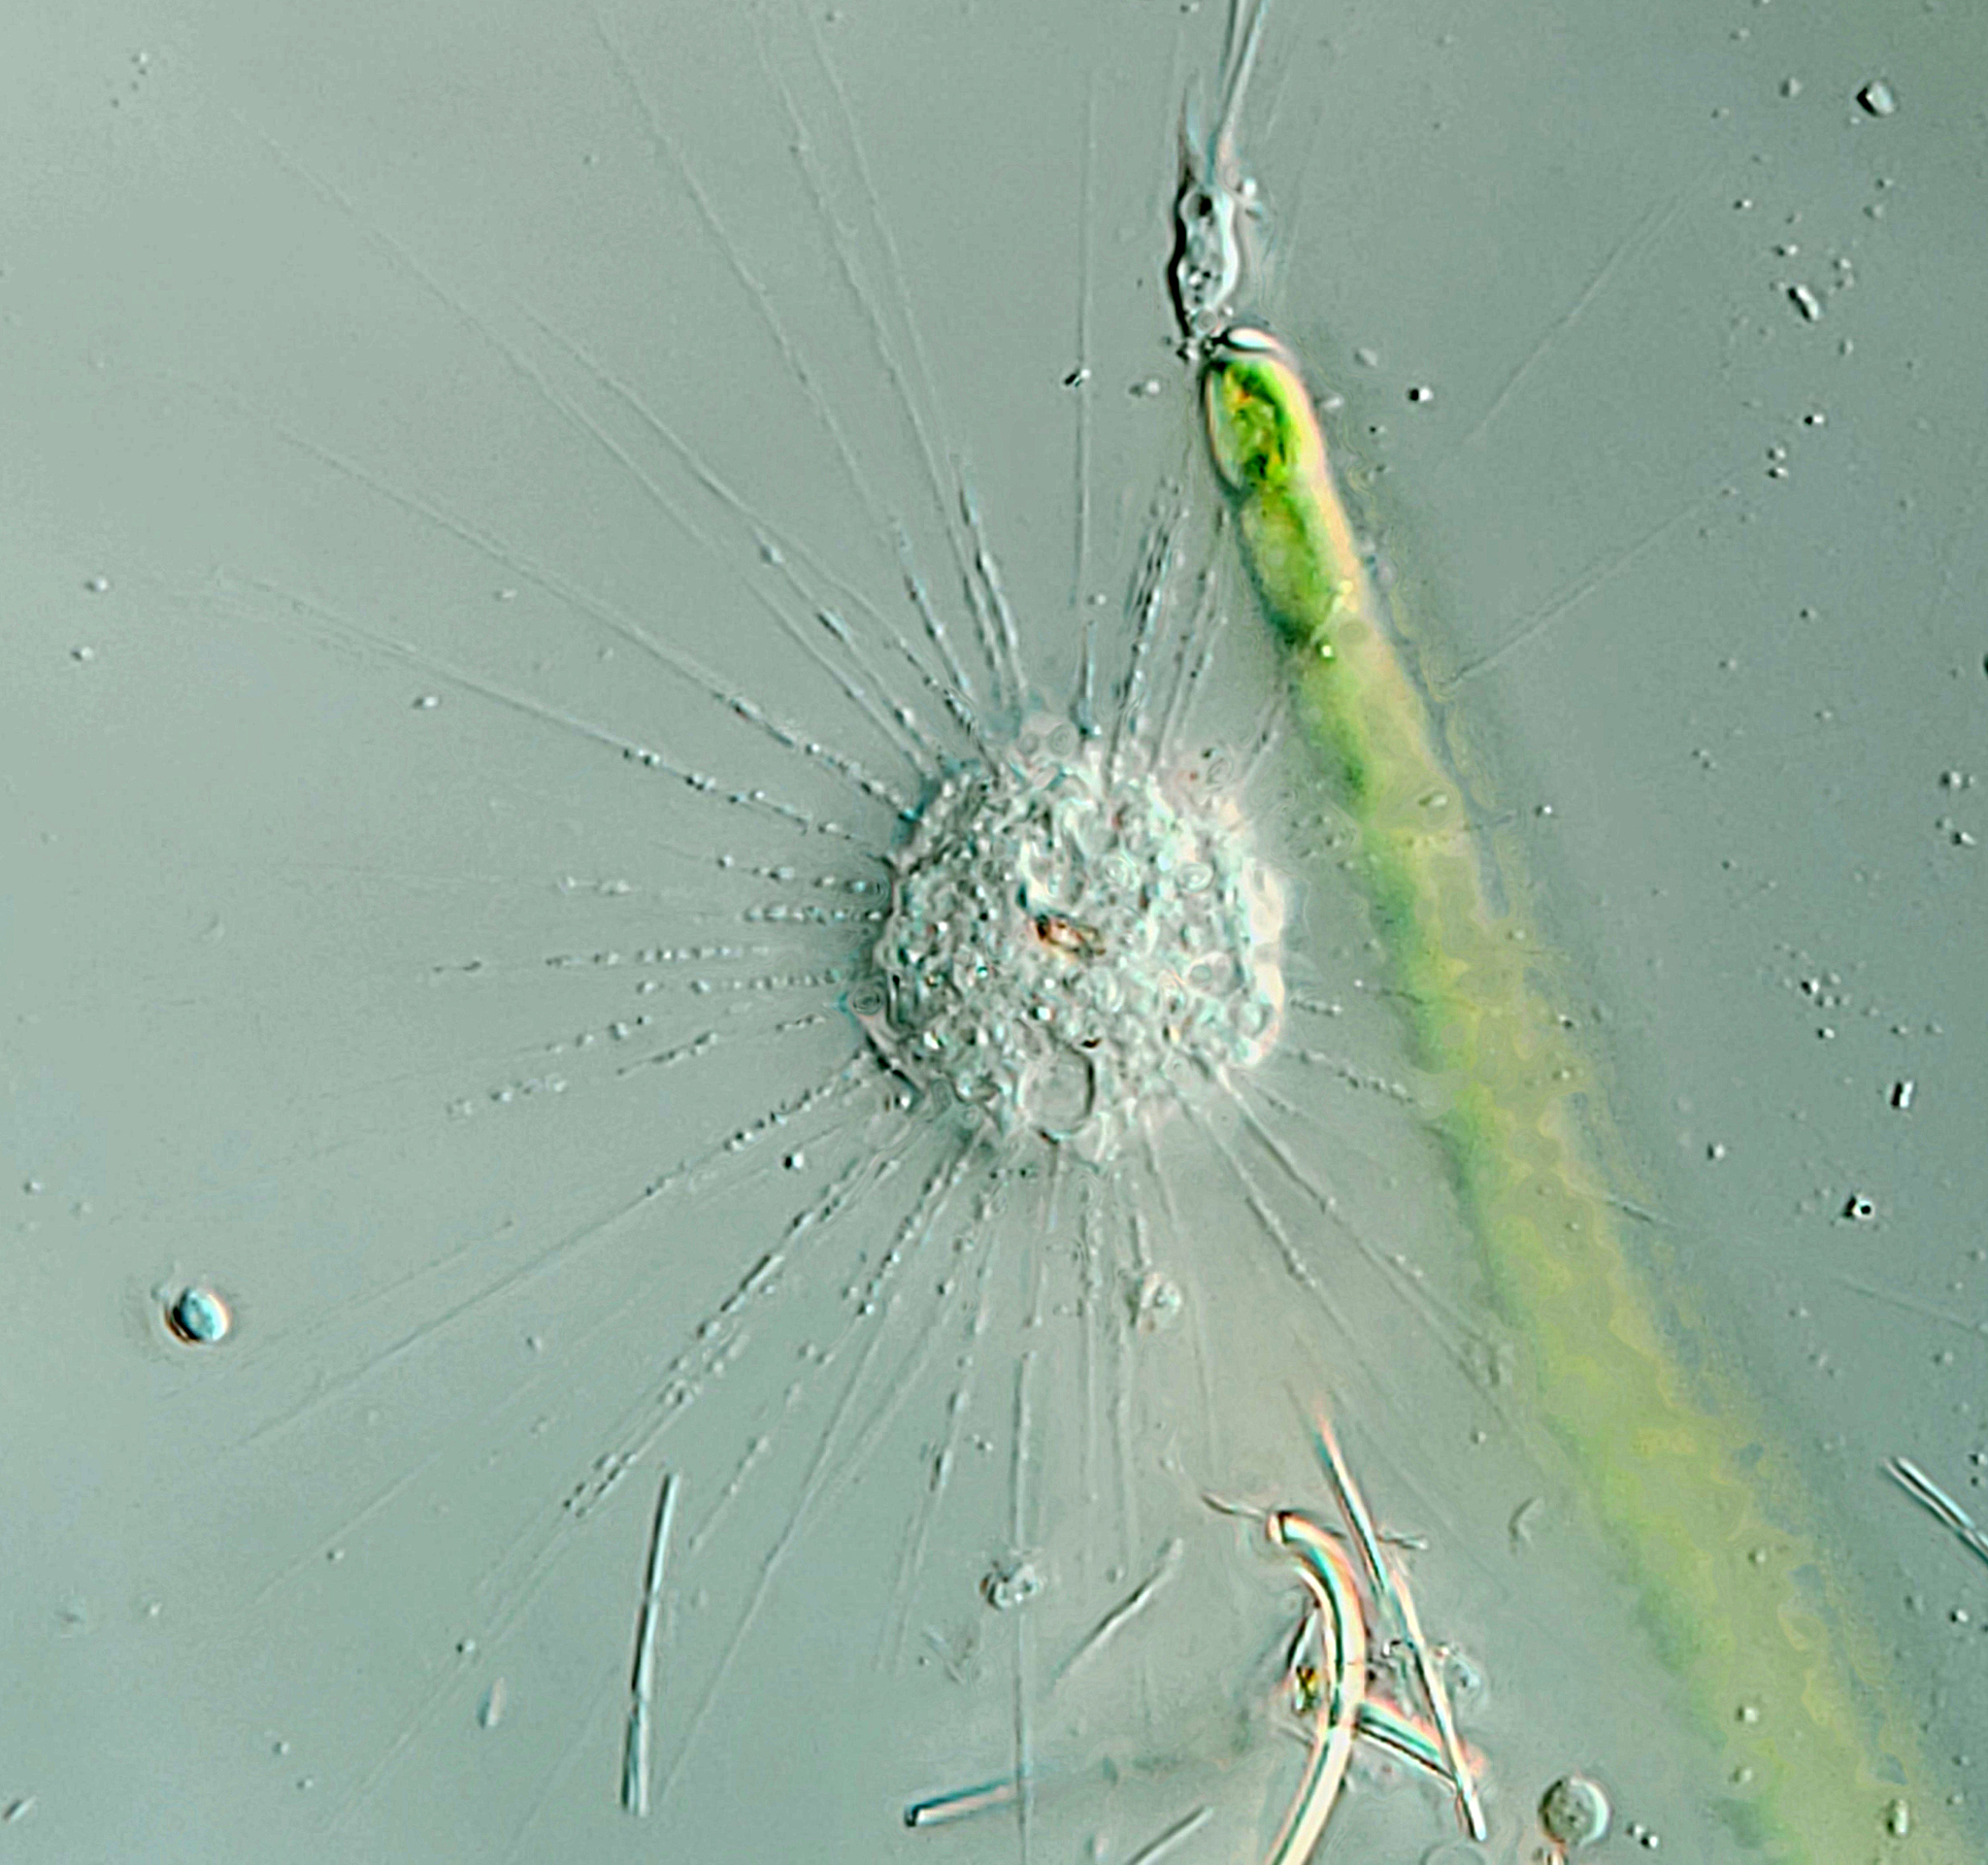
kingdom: Chromista
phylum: Ochrophyta
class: Raphidophyceae
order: Actinophryida
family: Actinophryidae
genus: Actinophrys
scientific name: Actinophrys sol
